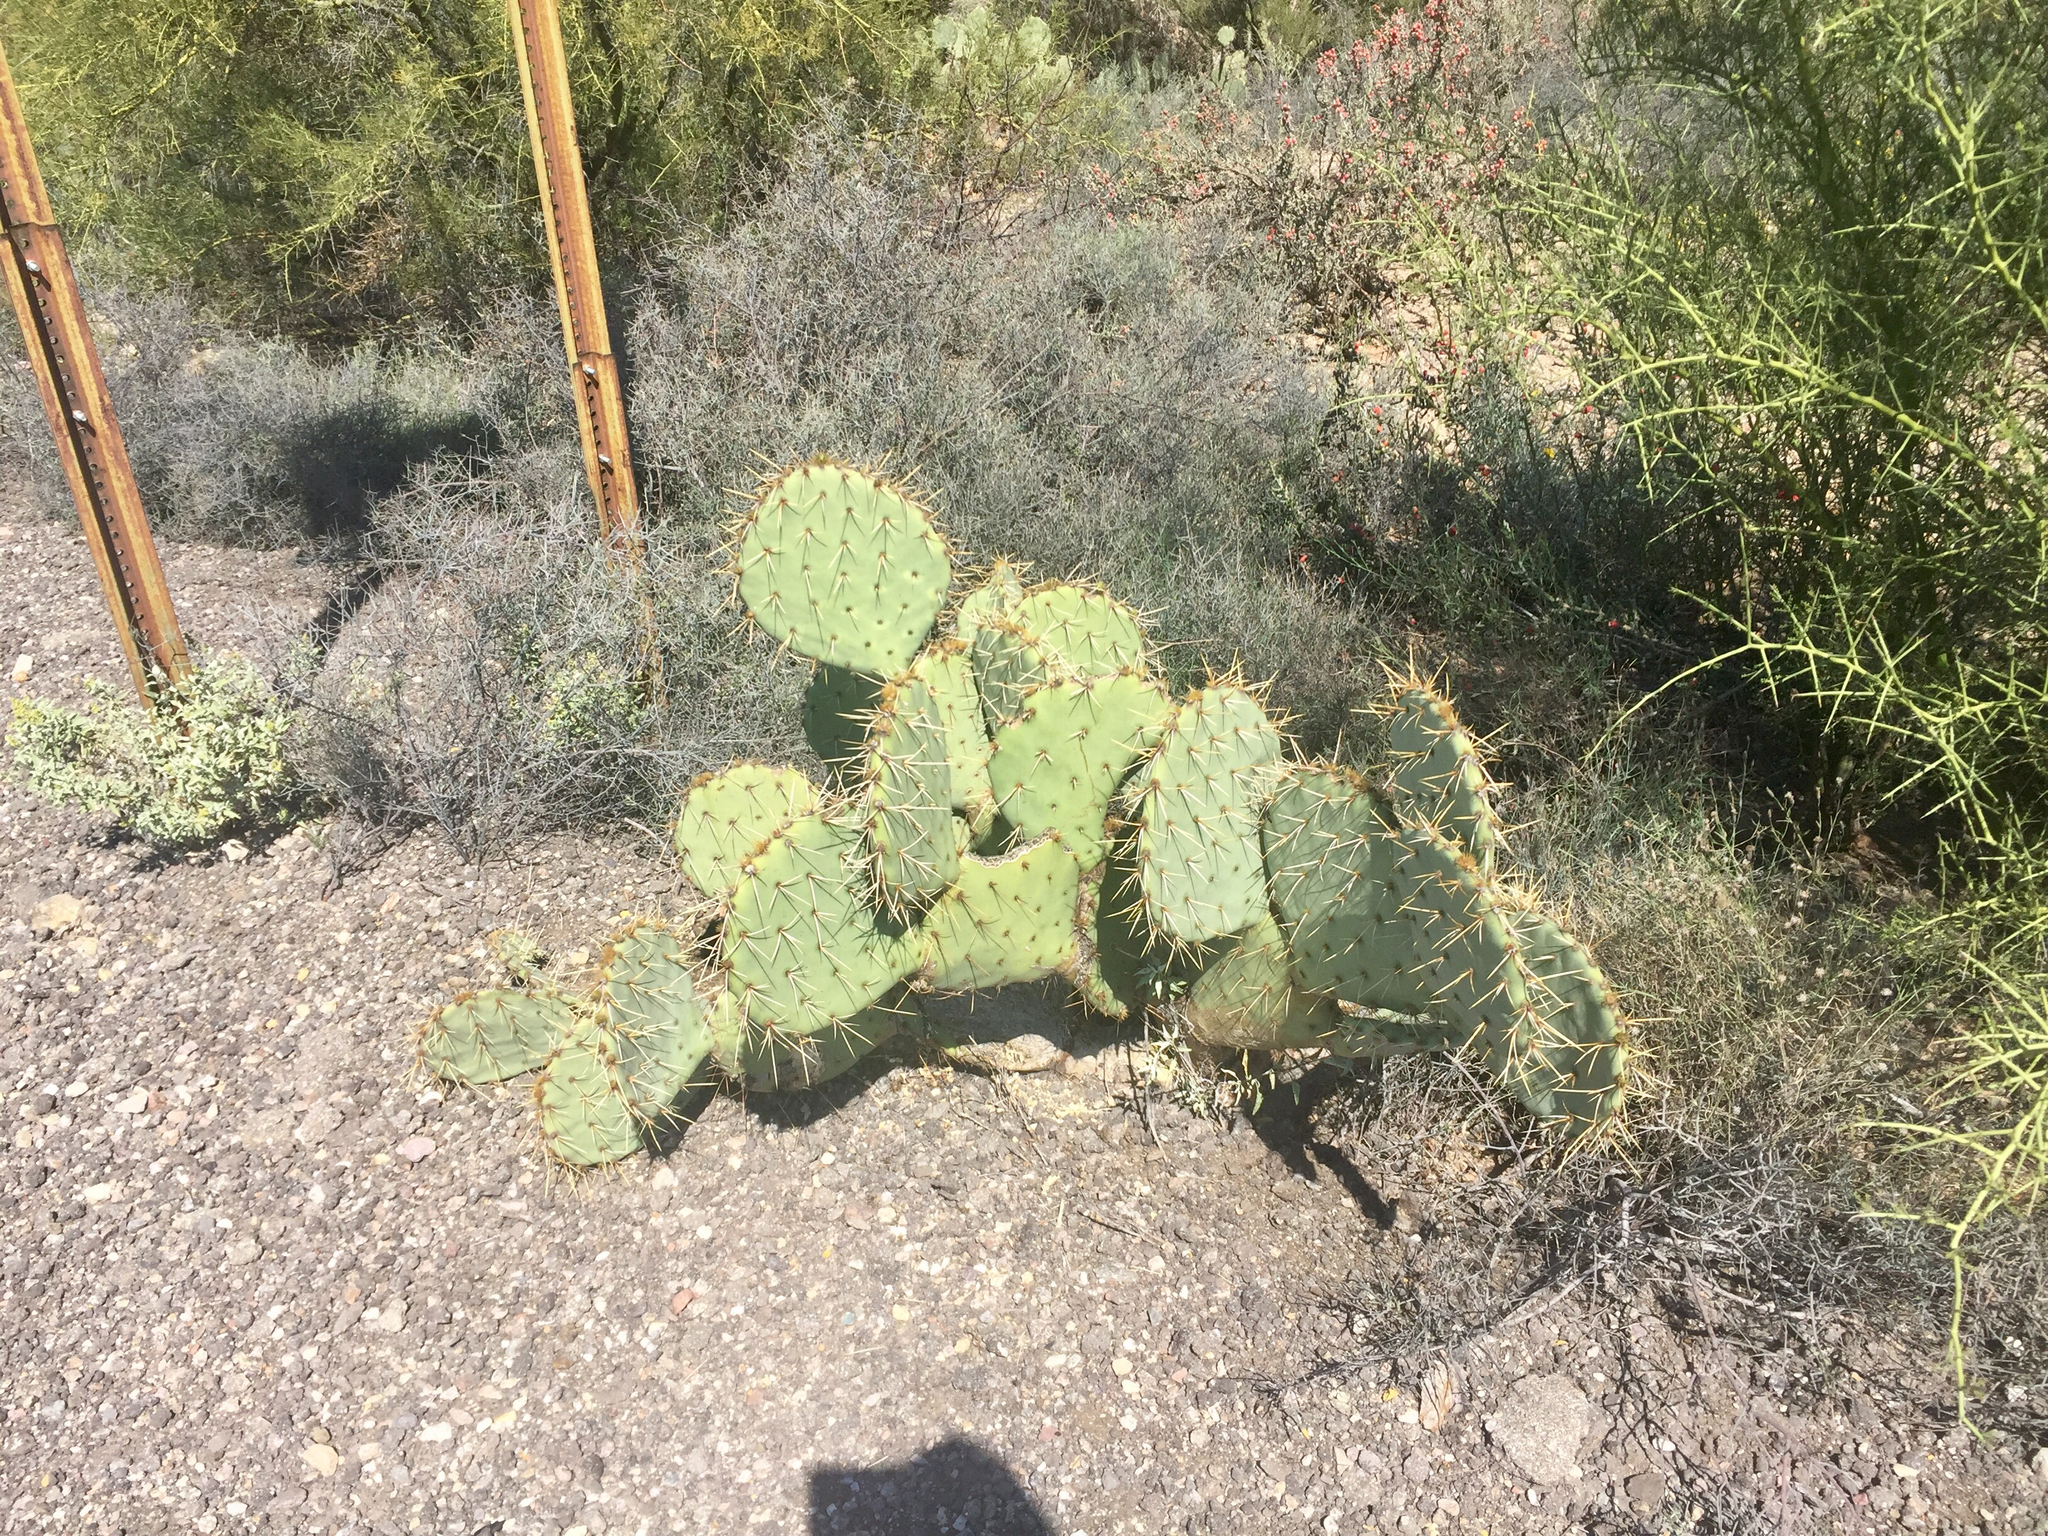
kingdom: Plantae
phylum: Tracheophyta
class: Magnoliopsida
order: Caryophyllales
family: Cactaceae
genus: Opuntia
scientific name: Opuntia engelmannii
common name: Cactus-apple
